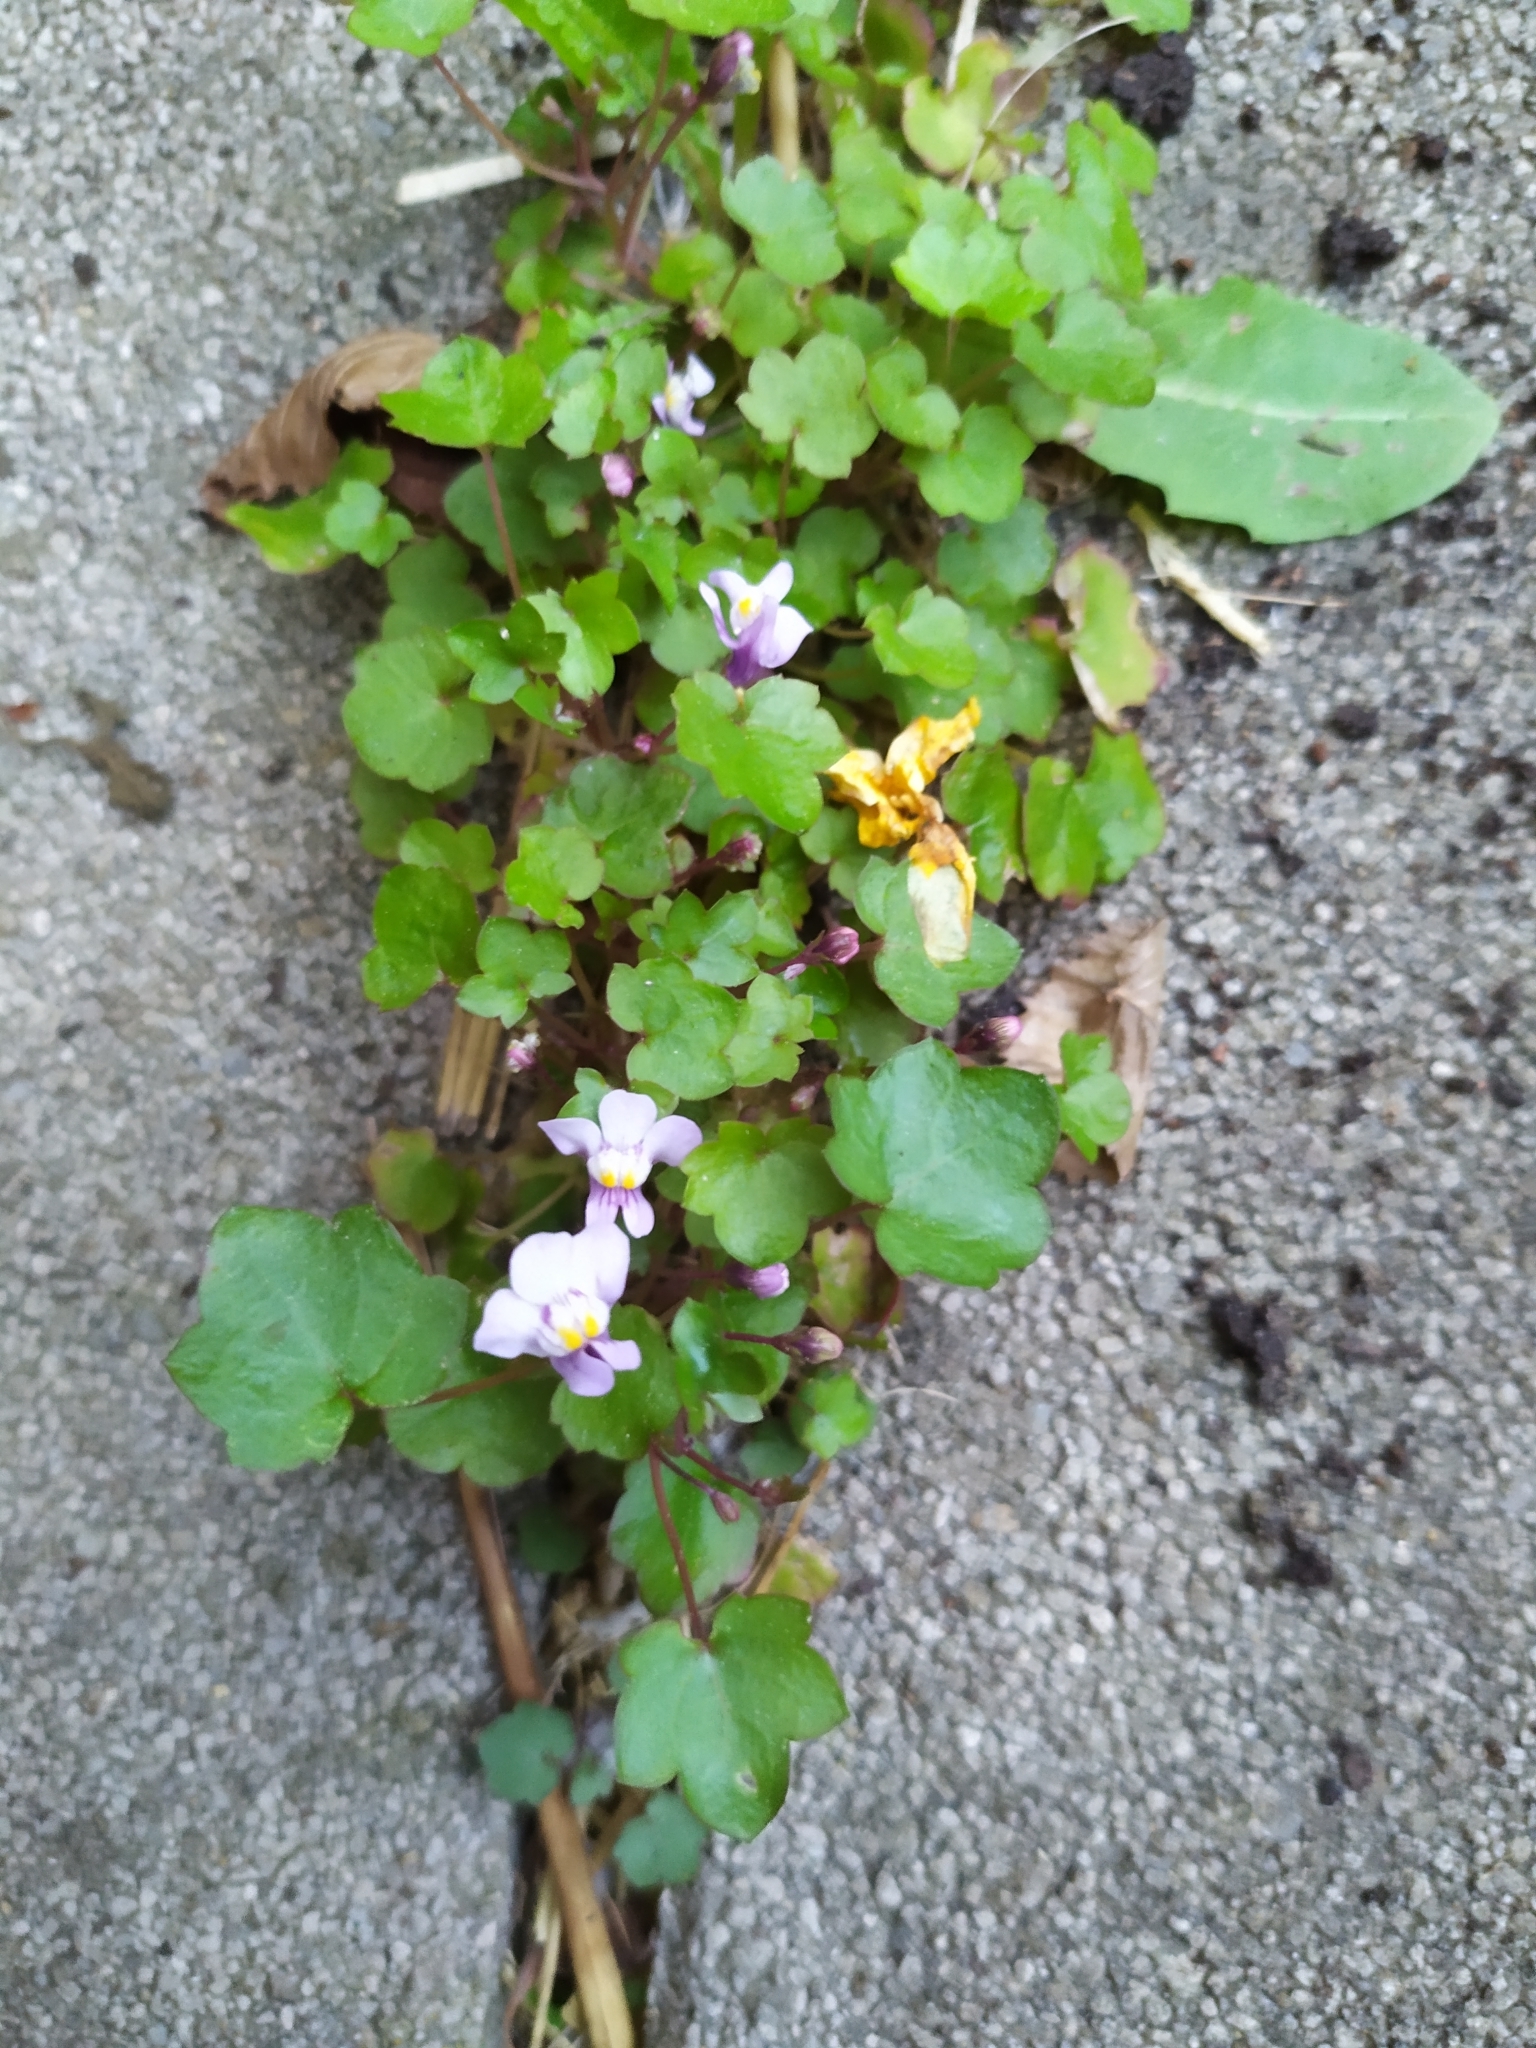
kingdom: Plantae
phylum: Tracheophyta
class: Magnoliopsida
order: Lamiales
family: Plantaginaceae
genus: Cymbalaria
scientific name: Cymbalaria muralis
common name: Ivy-leaved toadflax
